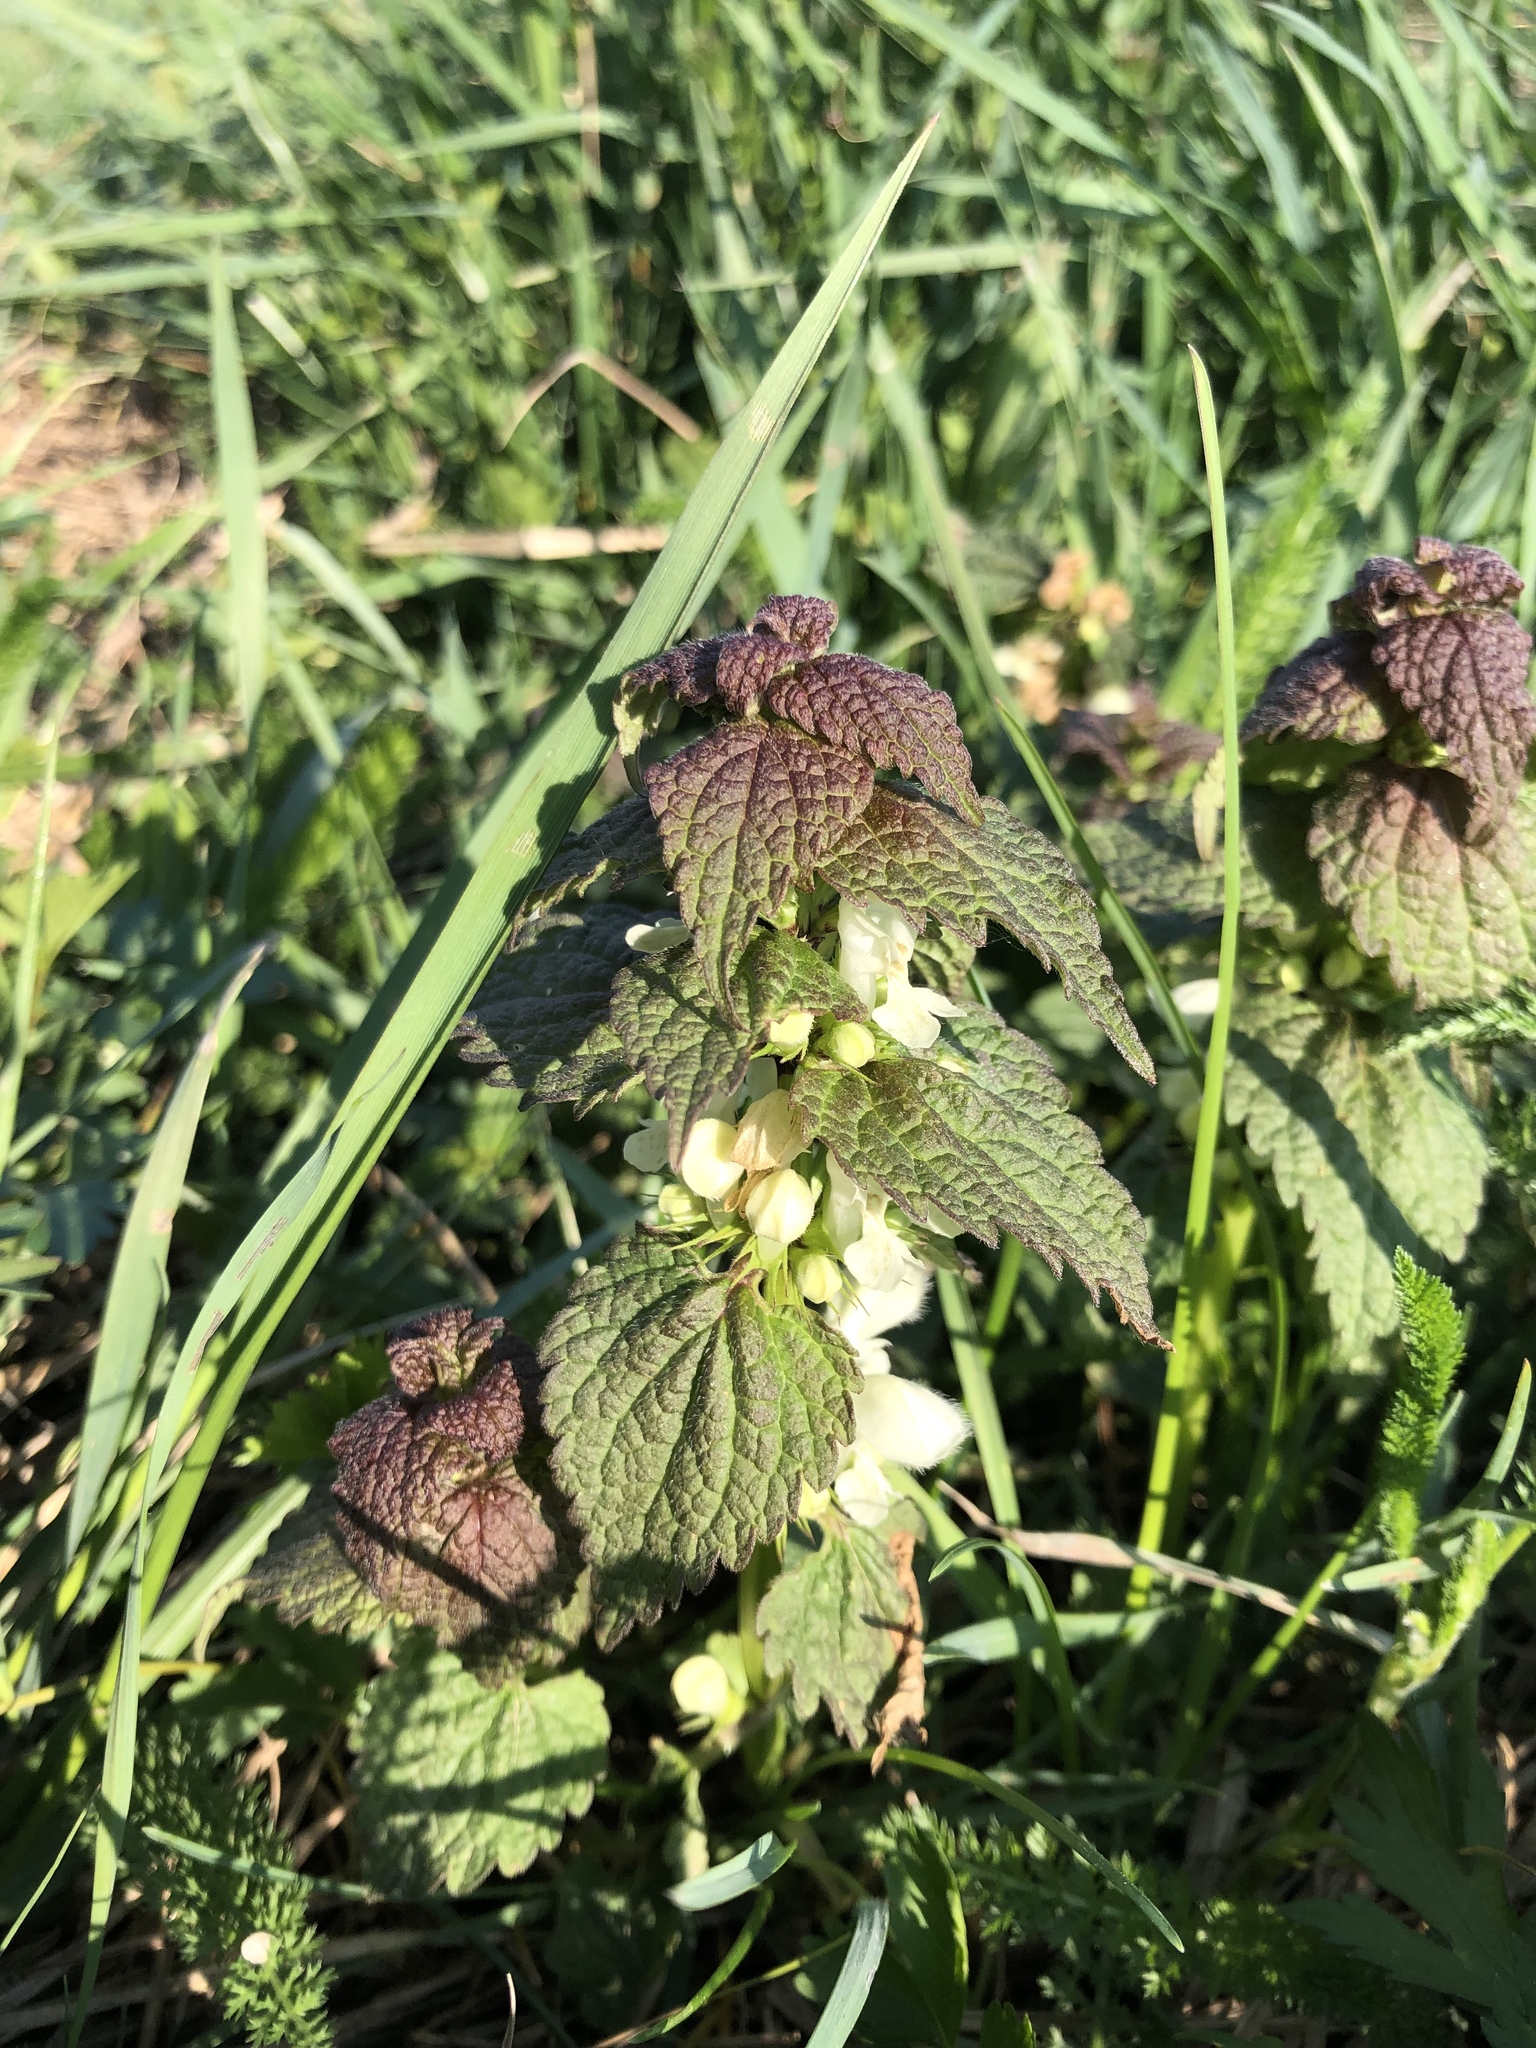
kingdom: Plantae
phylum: Tracheophyta
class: Magnoliopsida
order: Lamiales
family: Lamiaceae
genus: Lamium
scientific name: Lamium album
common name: White dead-nettle
